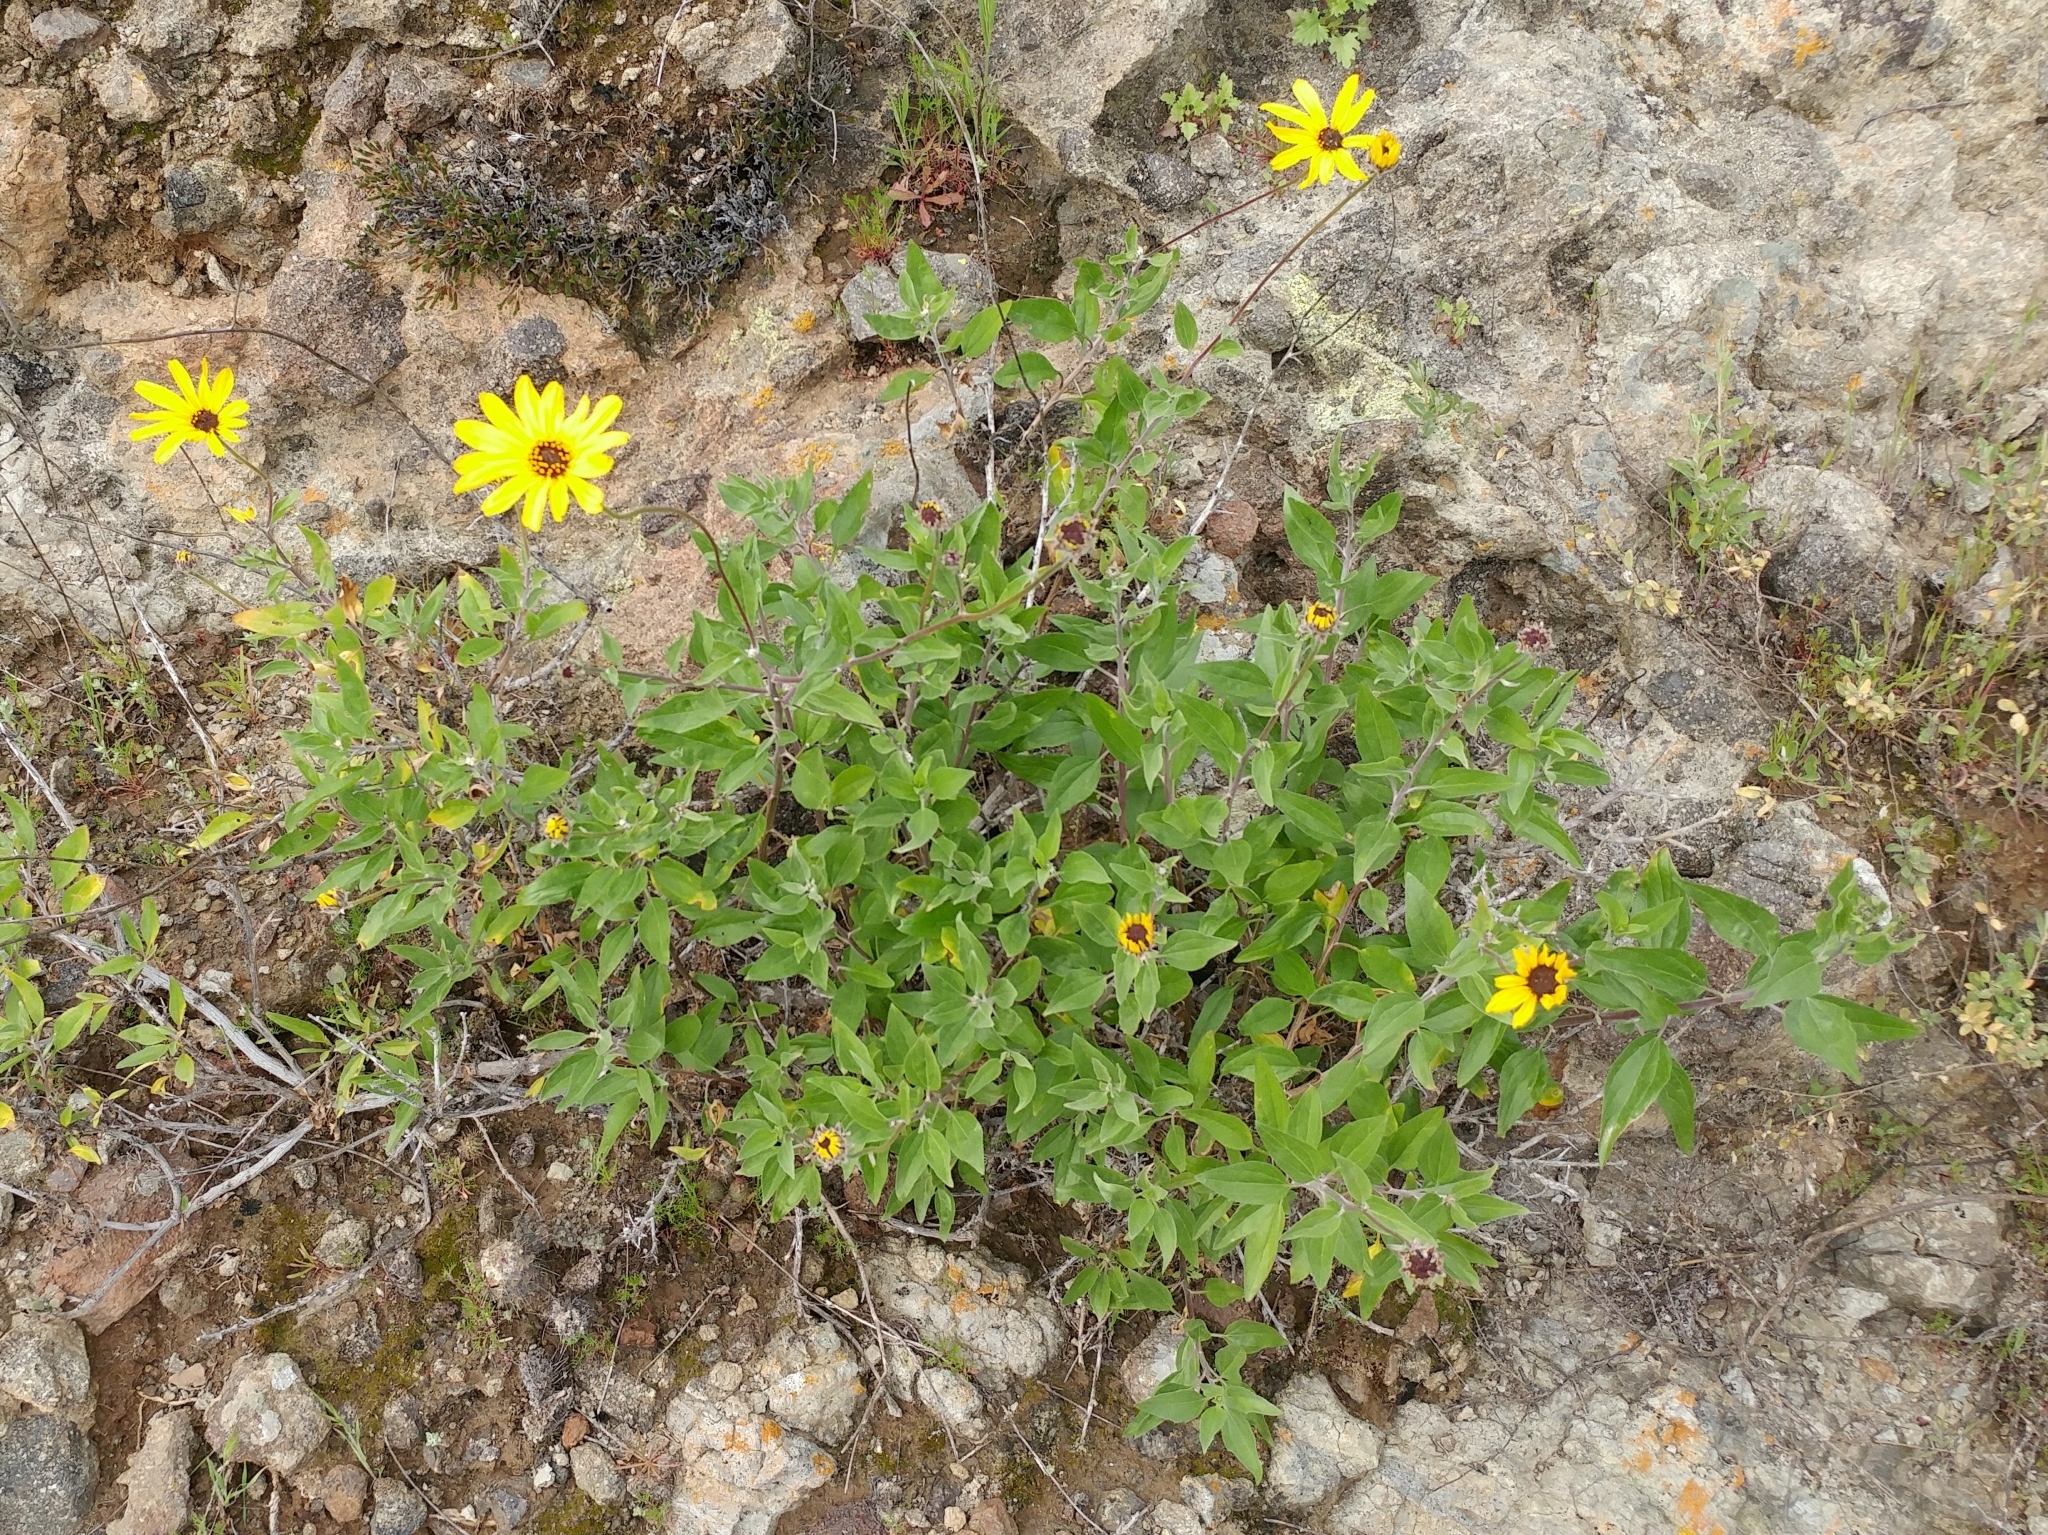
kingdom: Plantae
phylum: Tracheophyta
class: Magnoliopsida
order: Asterales
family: Asteraceae
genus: Encelia
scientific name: Encelia californica
